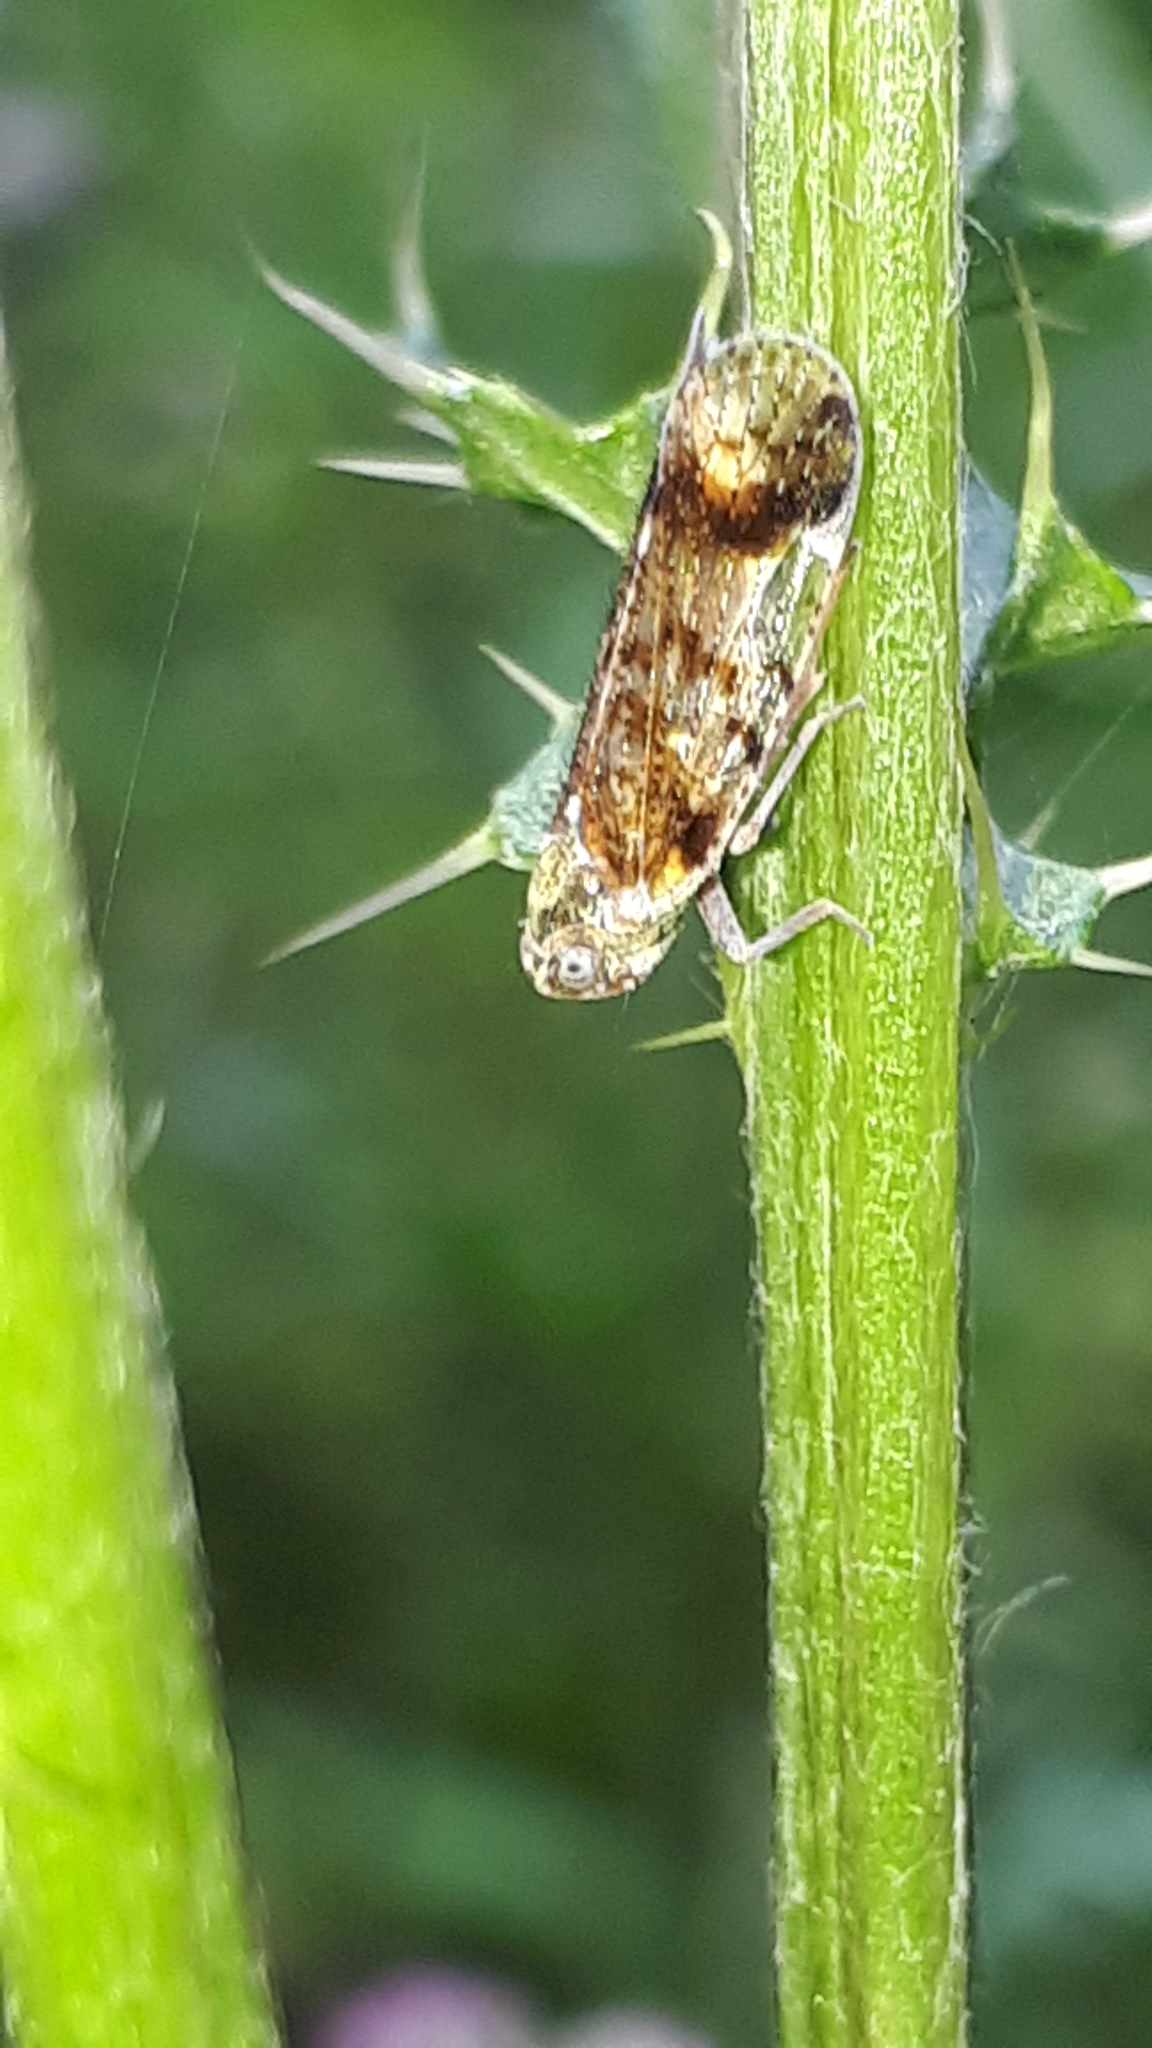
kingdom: Animalia
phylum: Arthropoda
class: Insecta
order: Hemiptera
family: Cixiidae
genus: Cixius
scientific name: Cixius cunicularius
